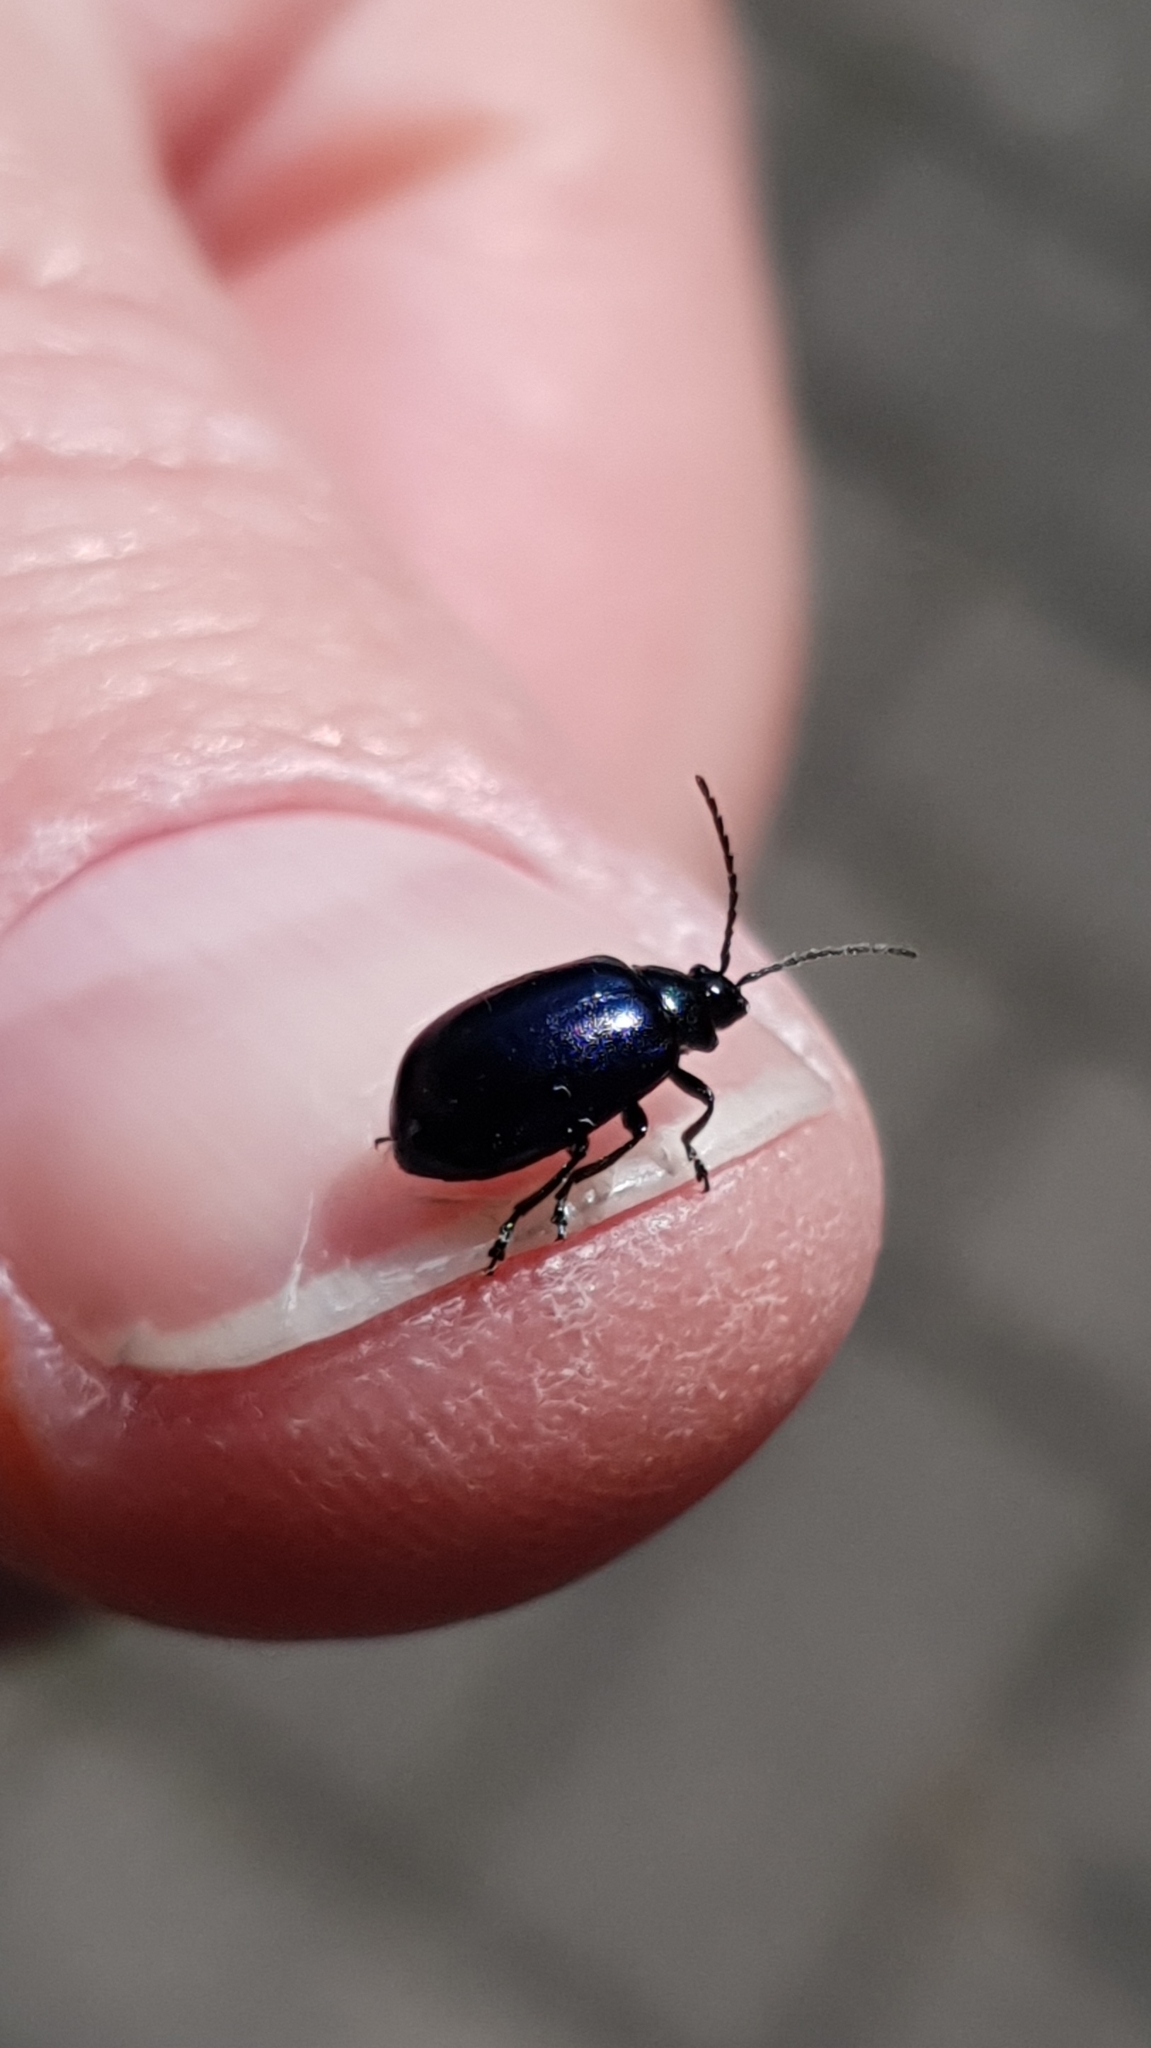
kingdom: Animalia
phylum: Arthropoda
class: Insecta
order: Coleoptera
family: Chrysomelidae
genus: Agelastica
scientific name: Agelastica alni
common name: Alder leaf beetle
